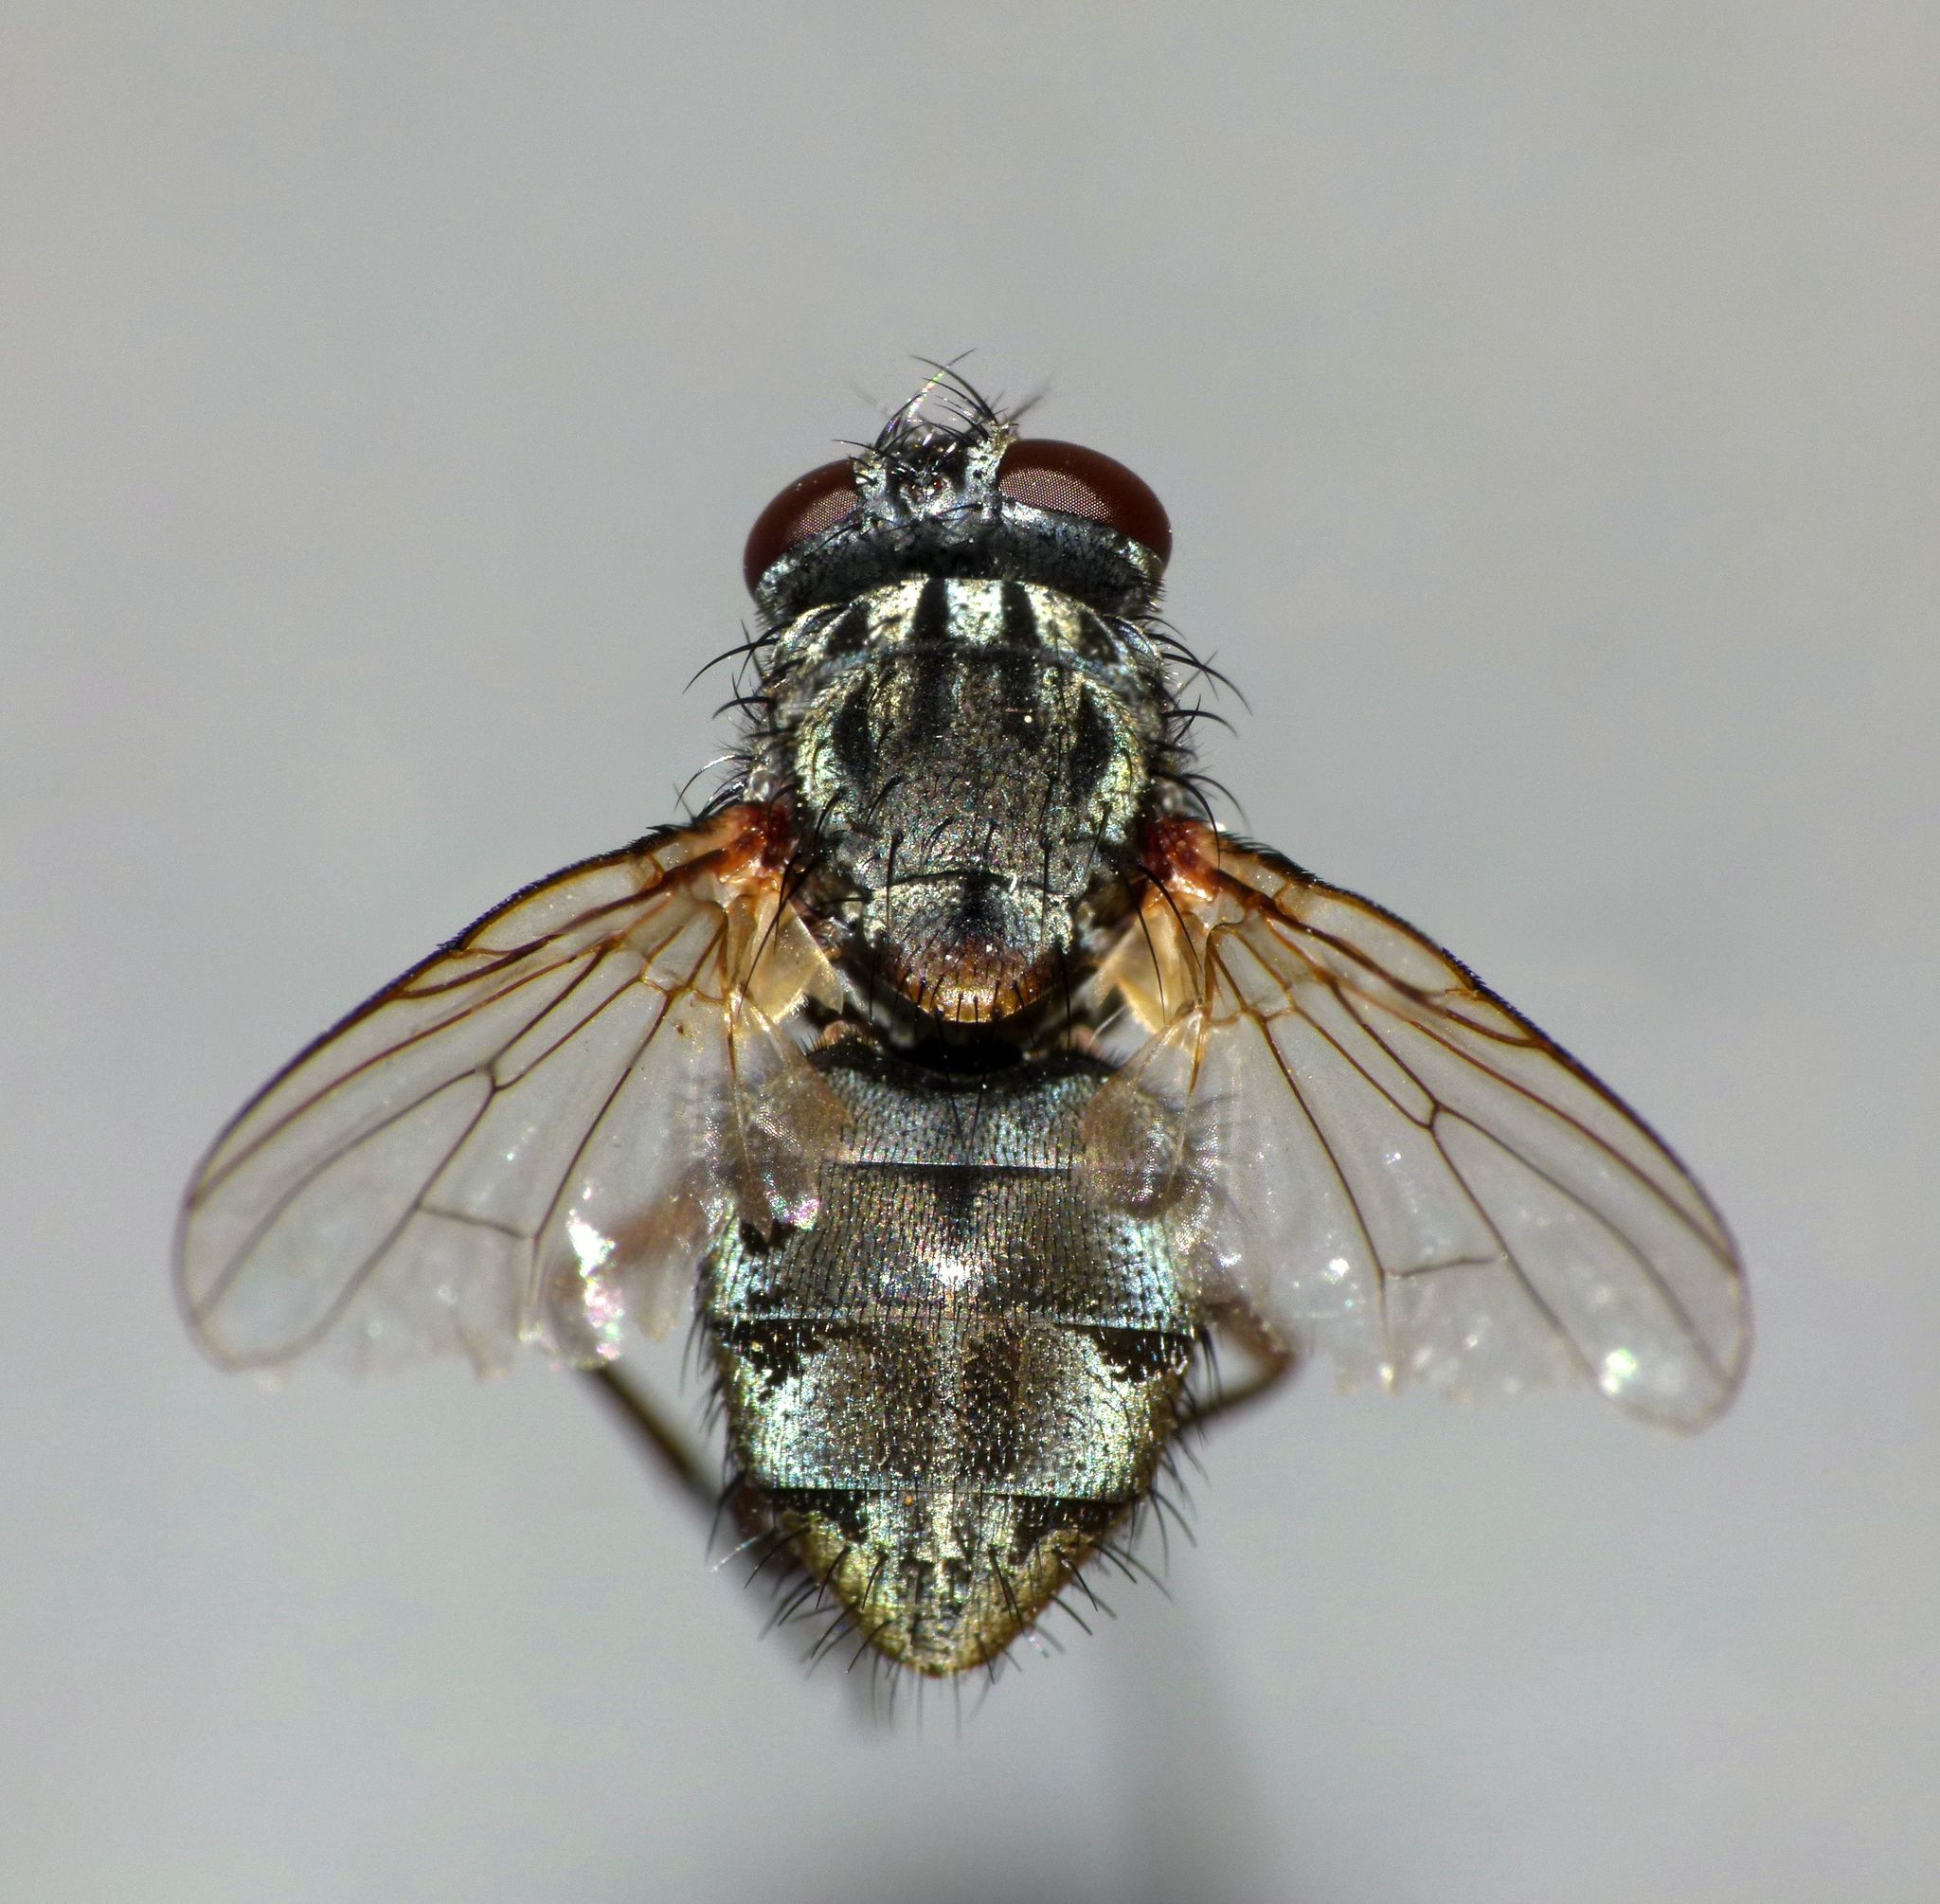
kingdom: Animalia
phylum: Arthropoda
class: Insecta
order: Diptera
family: Muscidae
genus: Muscina
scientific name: Muscina stabulans
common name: False stable fly
